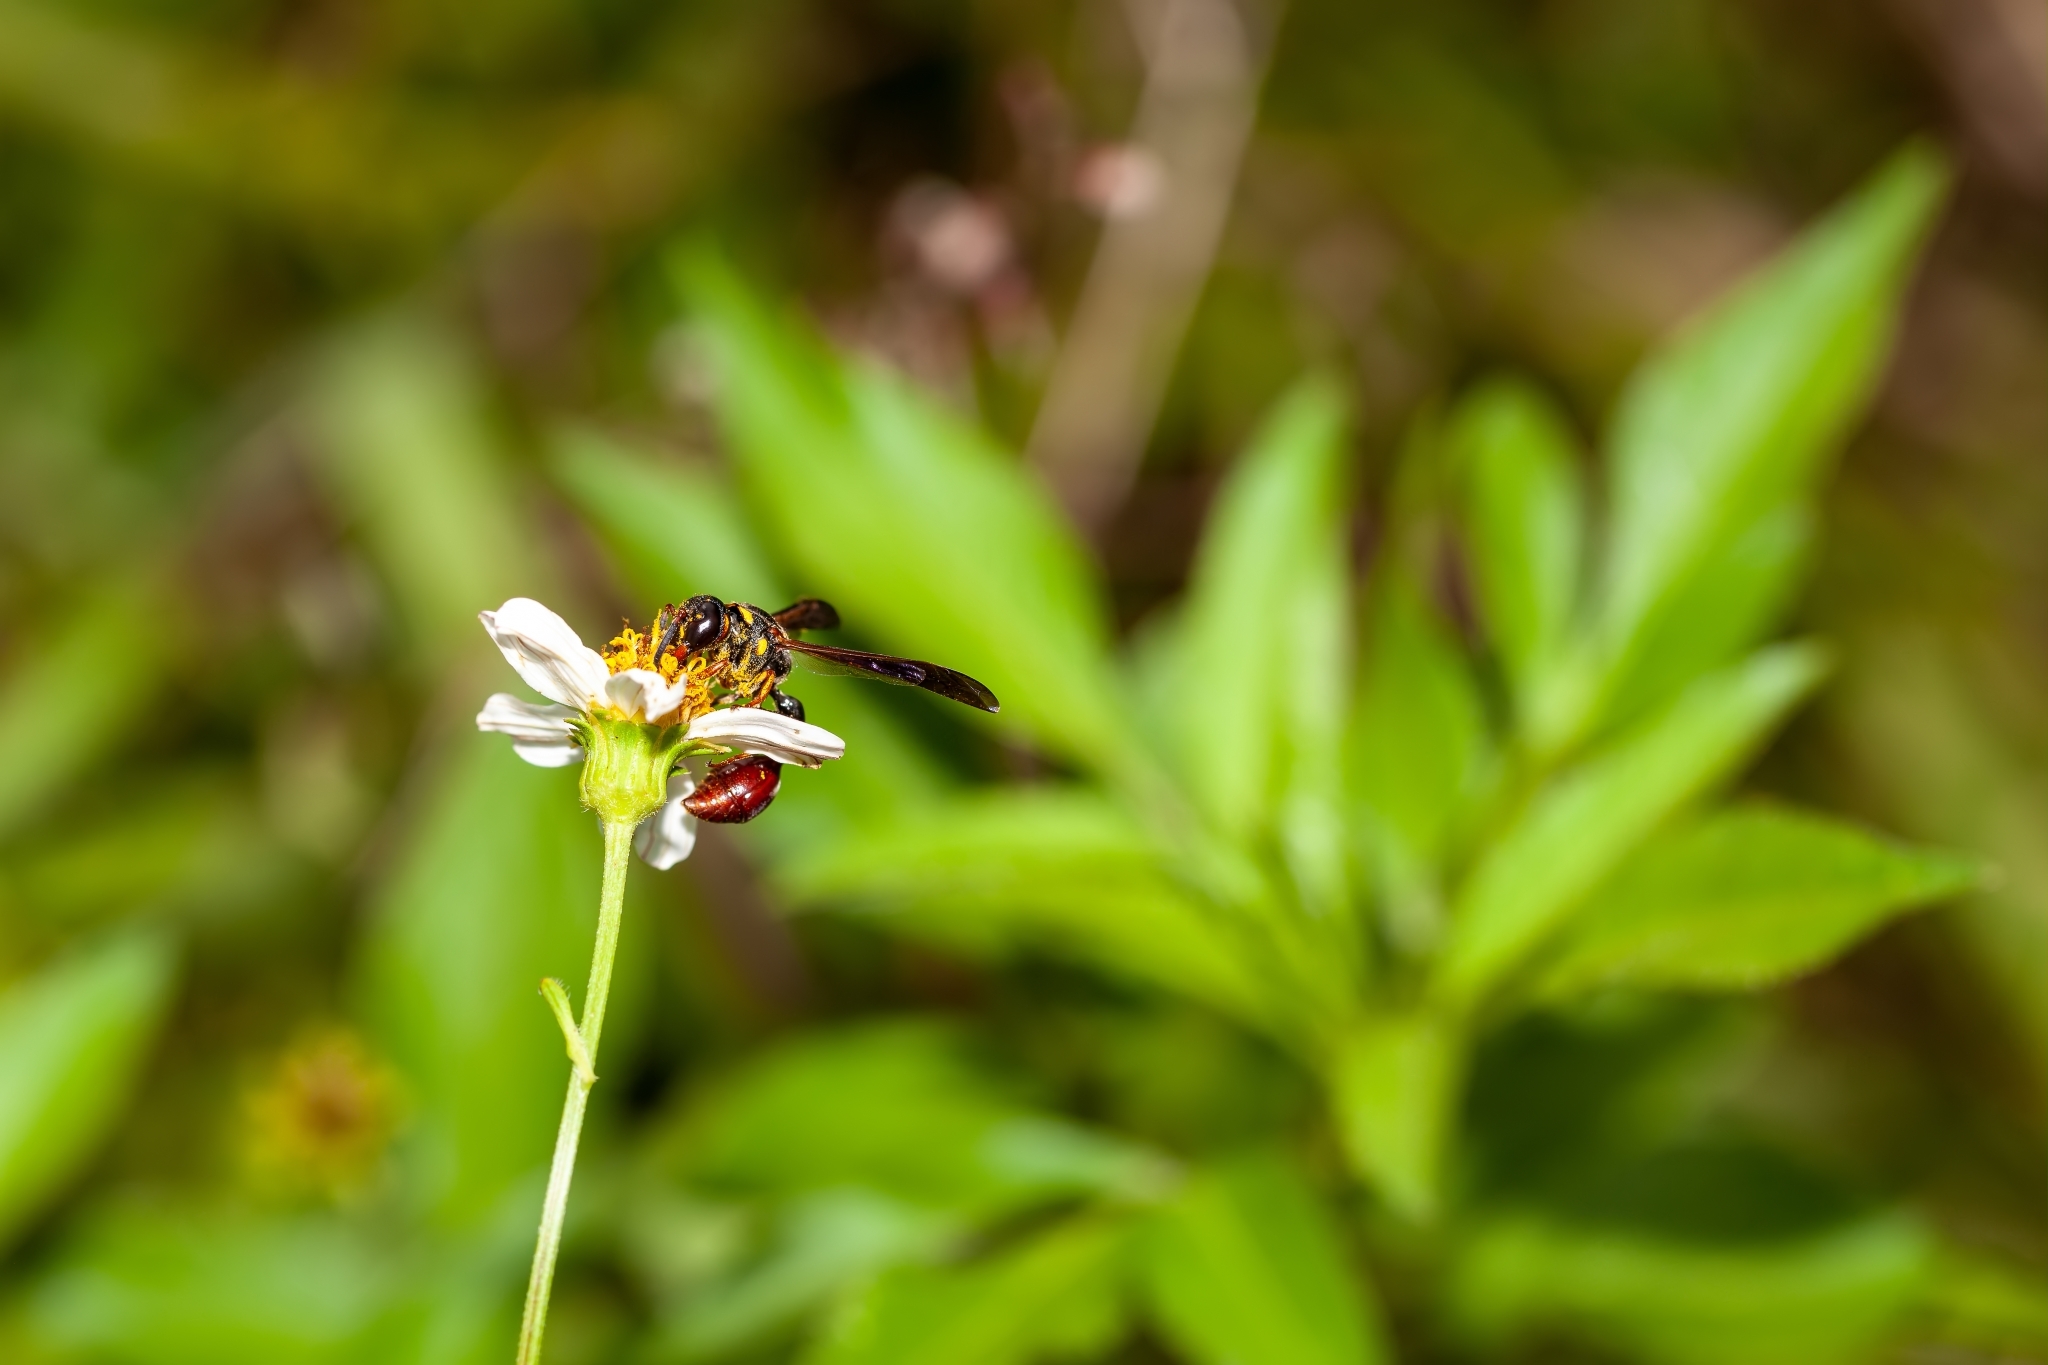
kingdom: Animalia
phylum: Arthropoda
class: Insecta
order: Hymenoptera
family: Eumenidae
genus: Zethus
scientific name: Zethus slossonae
